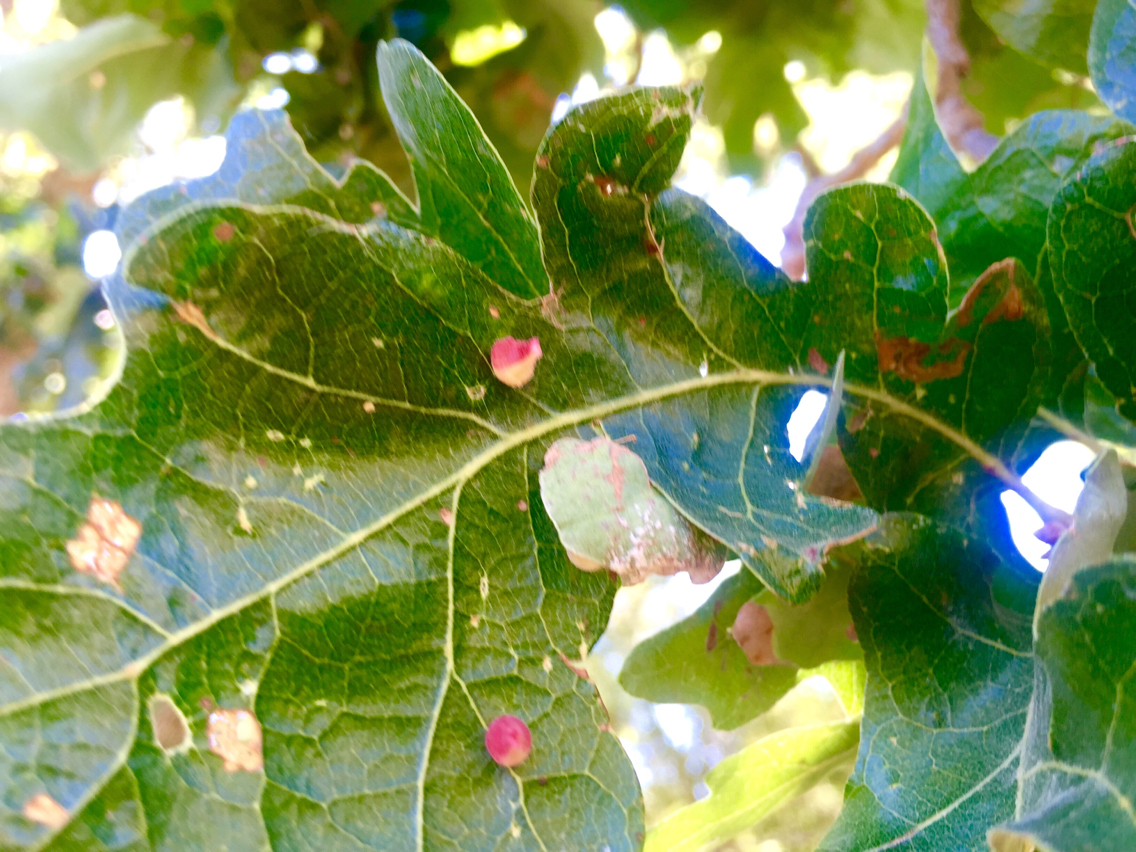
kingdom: Animalia
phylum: Arthropoda
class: Insecta
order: Hymenoptera
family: Cynipidae
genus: Andricus
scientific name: Andricus
